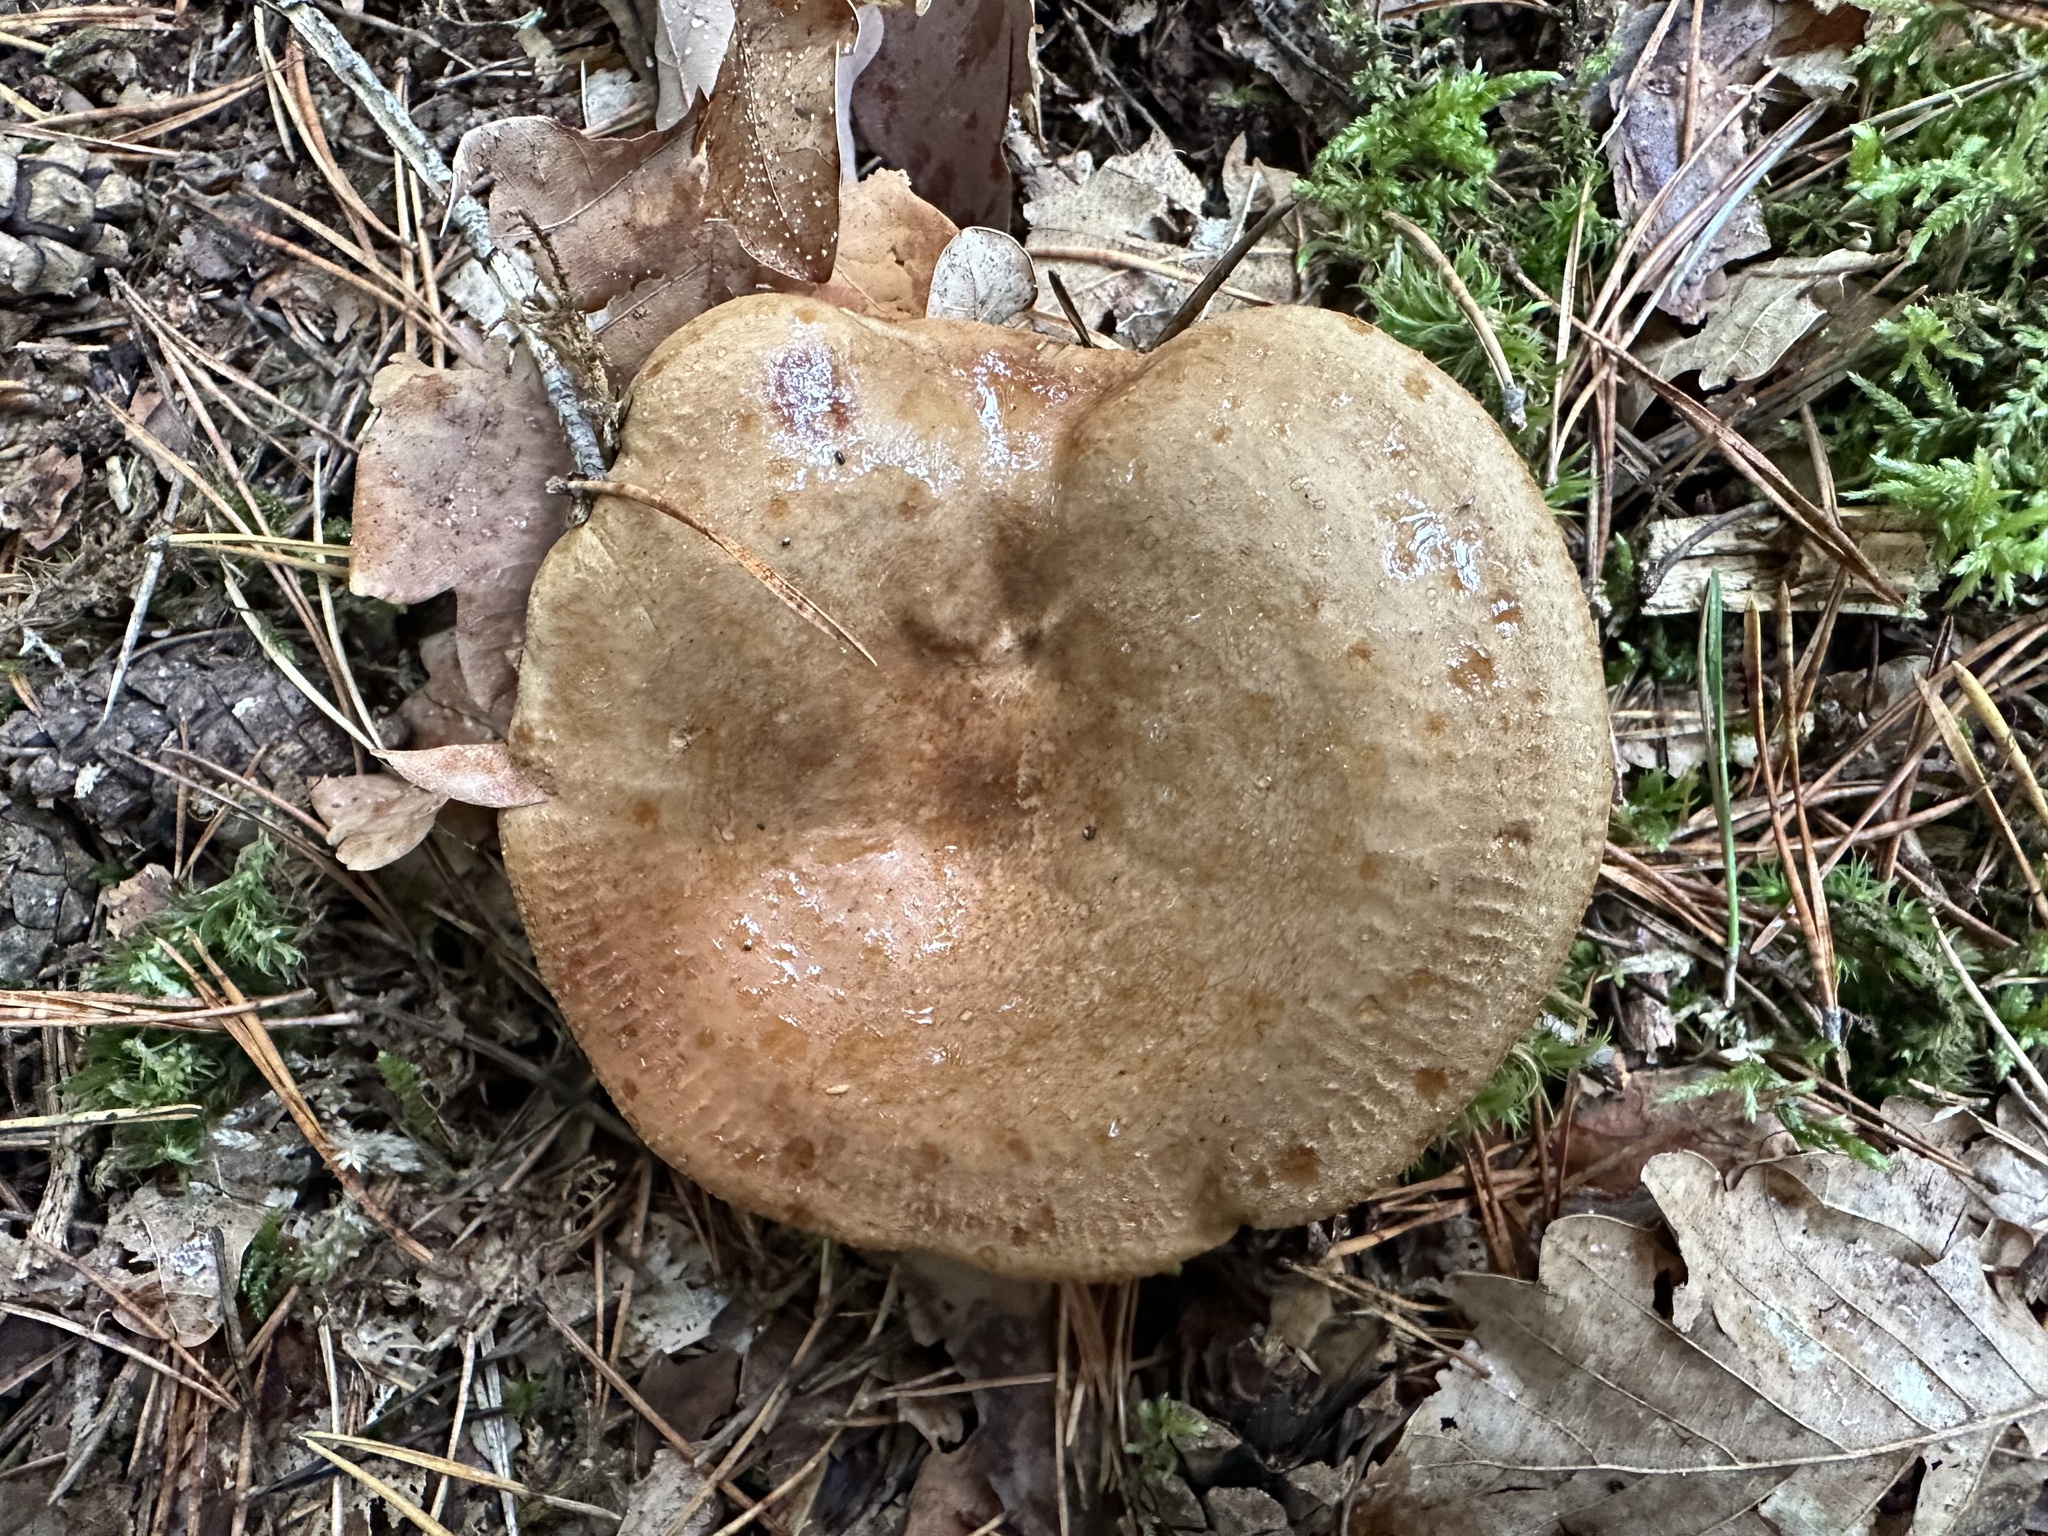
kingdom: Fungi
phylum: Basidiomycota
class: Agaricomycetes
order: Boletales
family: Paxillaceae
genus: Paxillus
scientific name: Paxillus involutus
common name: Brown roll rim
